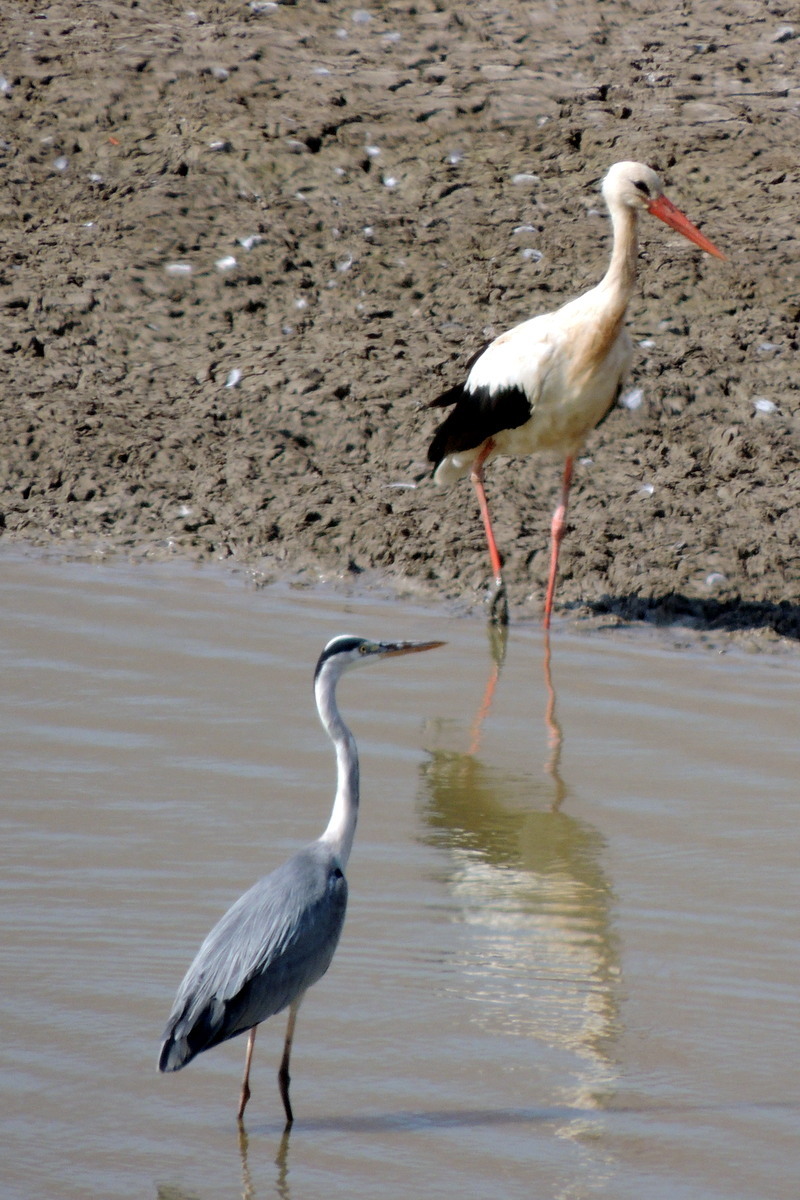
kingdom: Animalia
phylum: Chordata
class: Aves
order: Pelecaniformes
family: Ardeidae
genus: Ardea
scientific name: Ardea cinerea
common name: Grey heron
